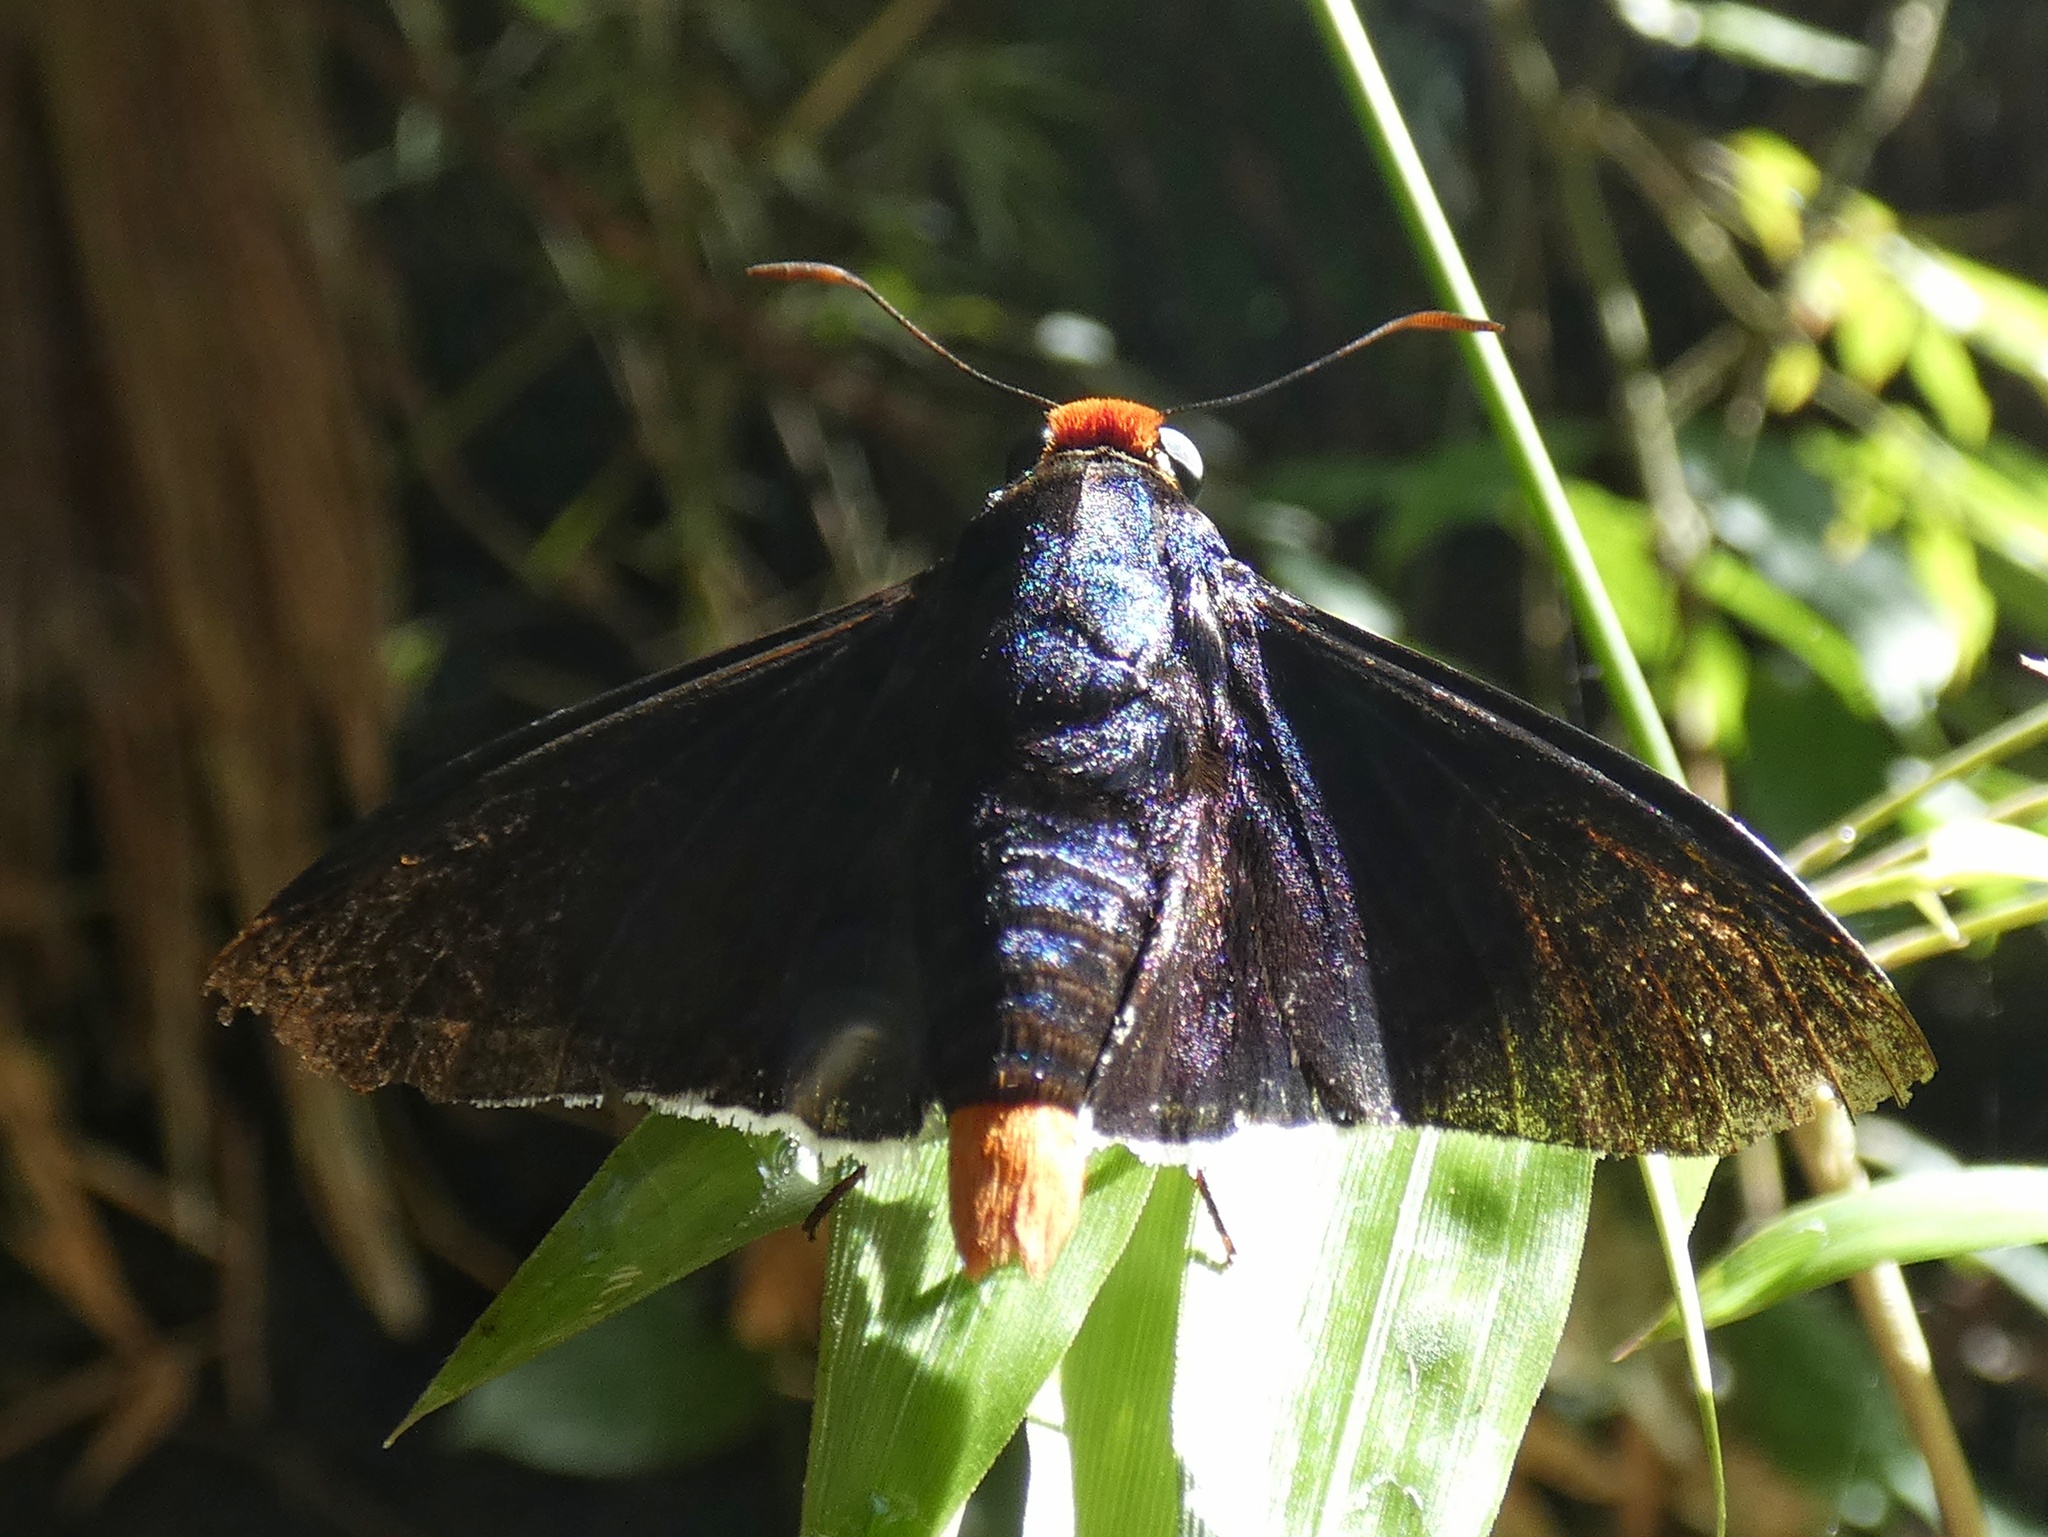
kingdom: Animalia
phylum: Arthropoda
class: Insecta
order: Lepidoptera
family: Hesperiidae
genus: Pyrrhopyge
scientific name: Pyrrhopyge phidias
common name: Original firetip
